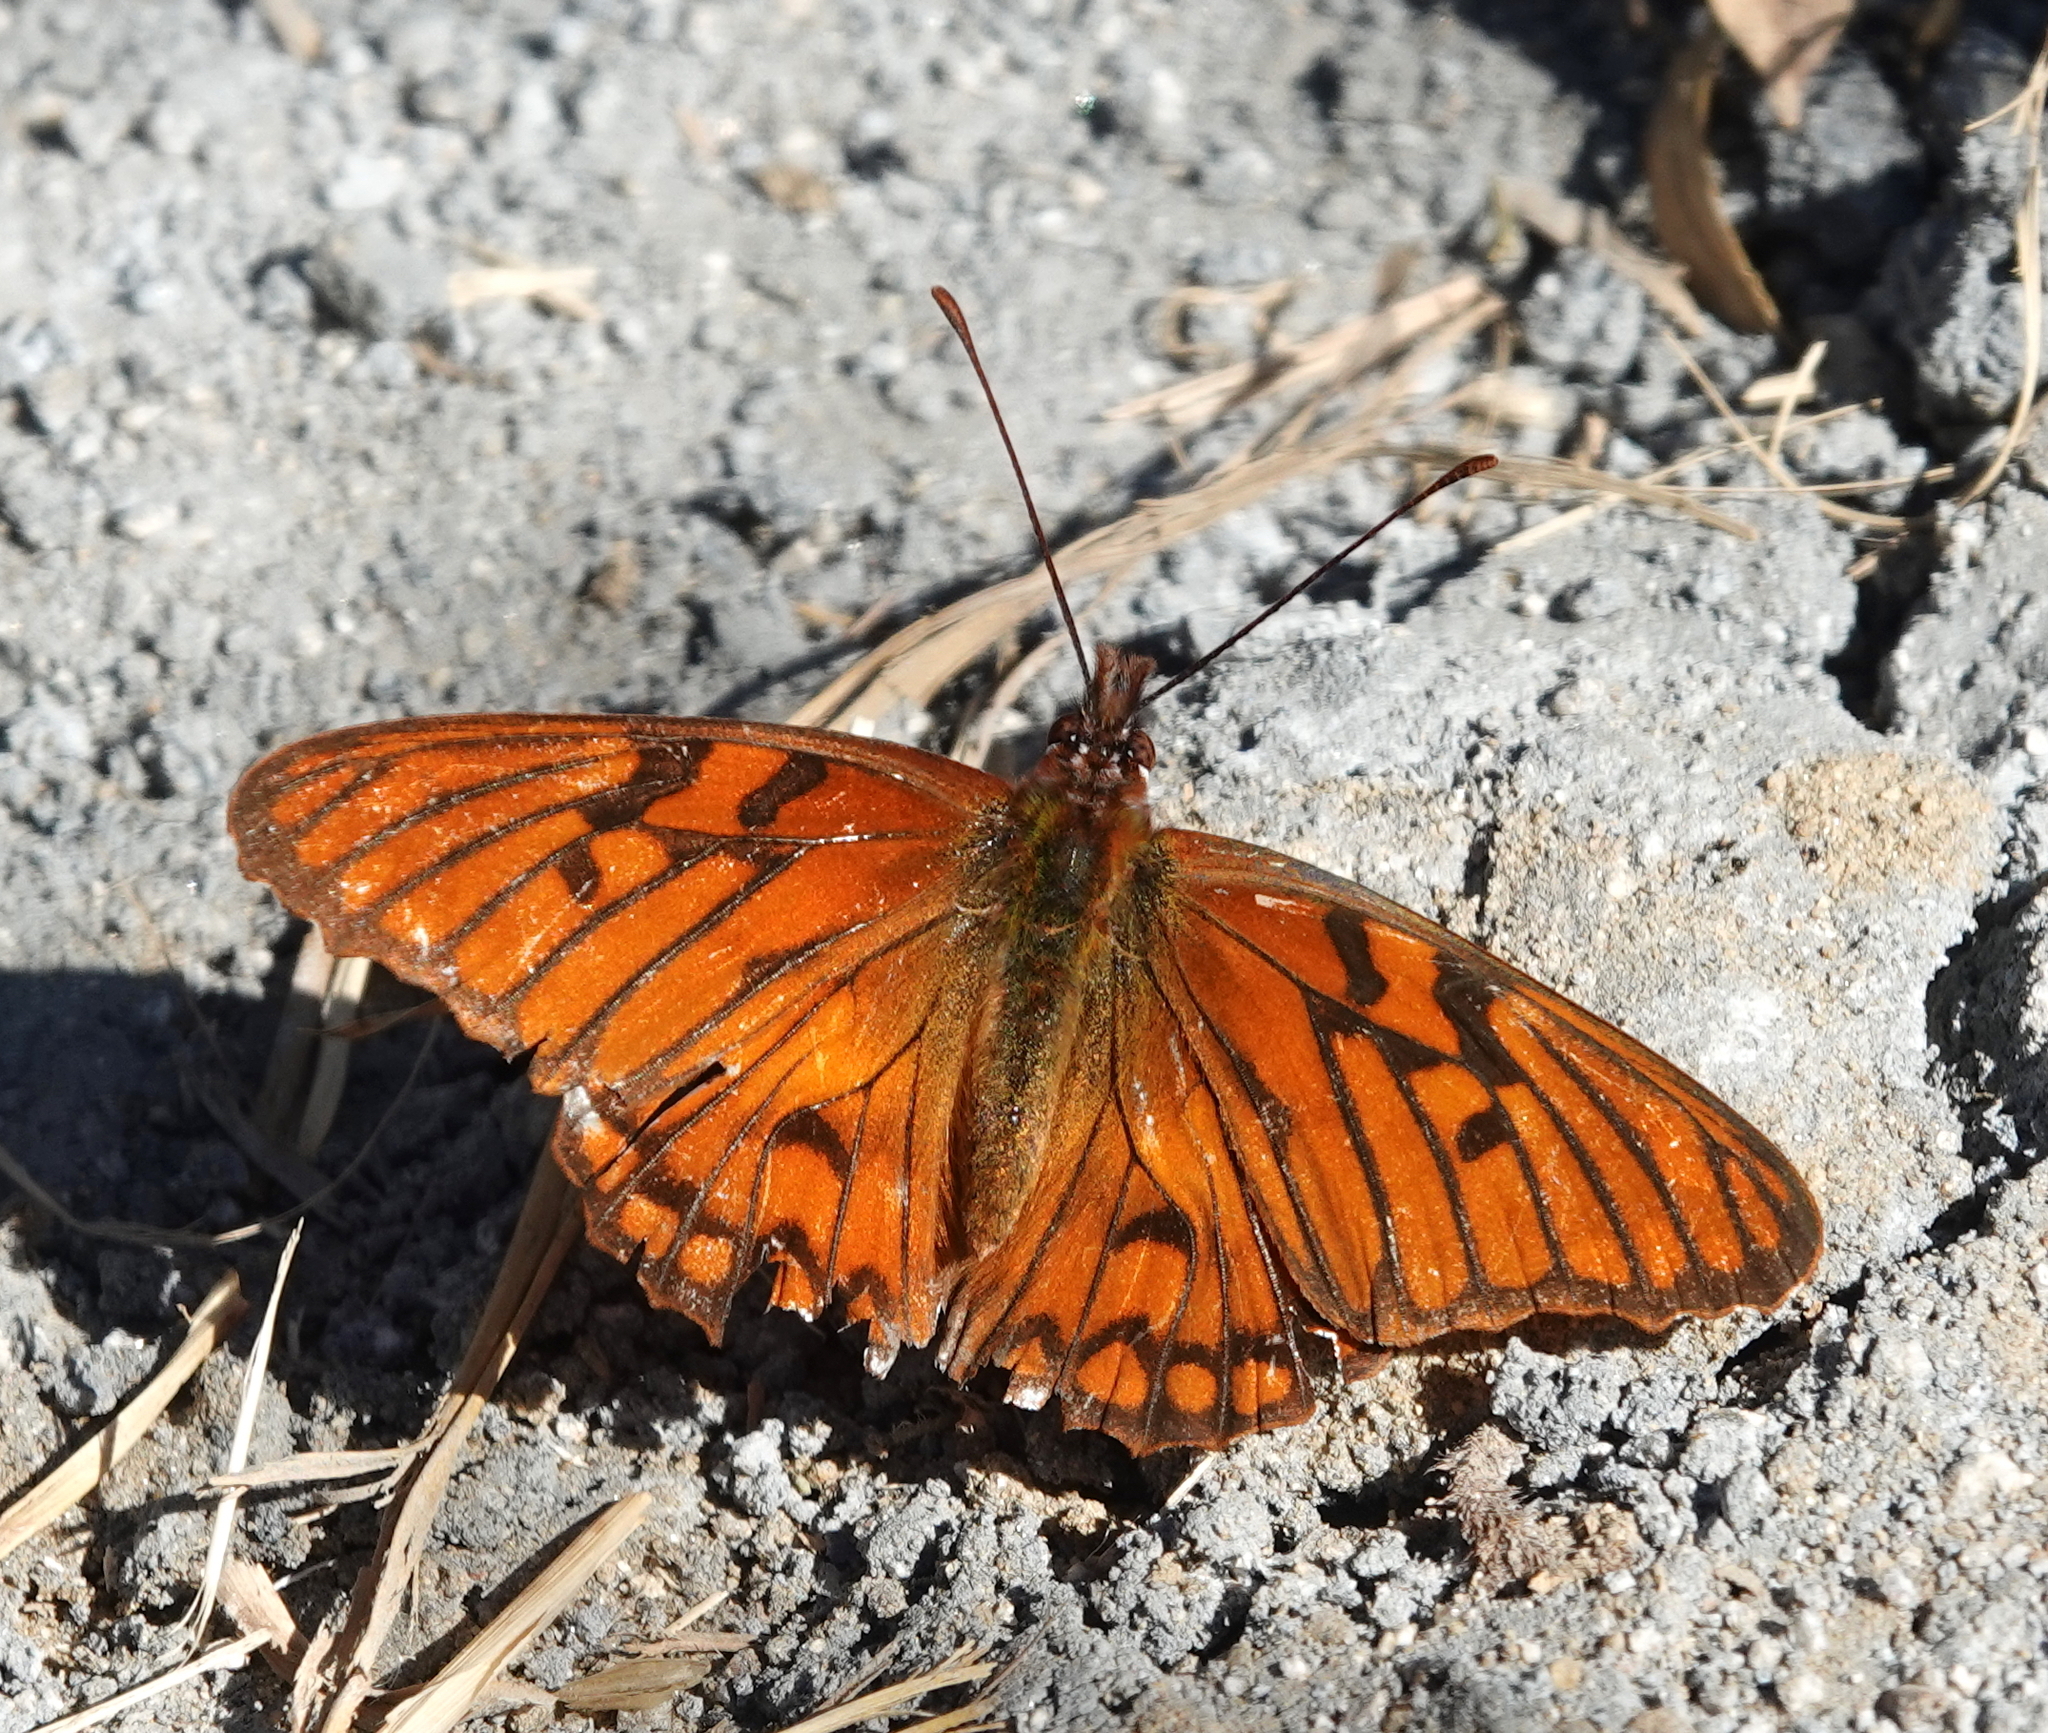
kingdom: Animalia
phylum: Arthropoda
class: Insecta
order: Lepidoptera
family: Nymphalidae
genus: Dione
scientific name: Dione glycera
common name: Andean silverspot
